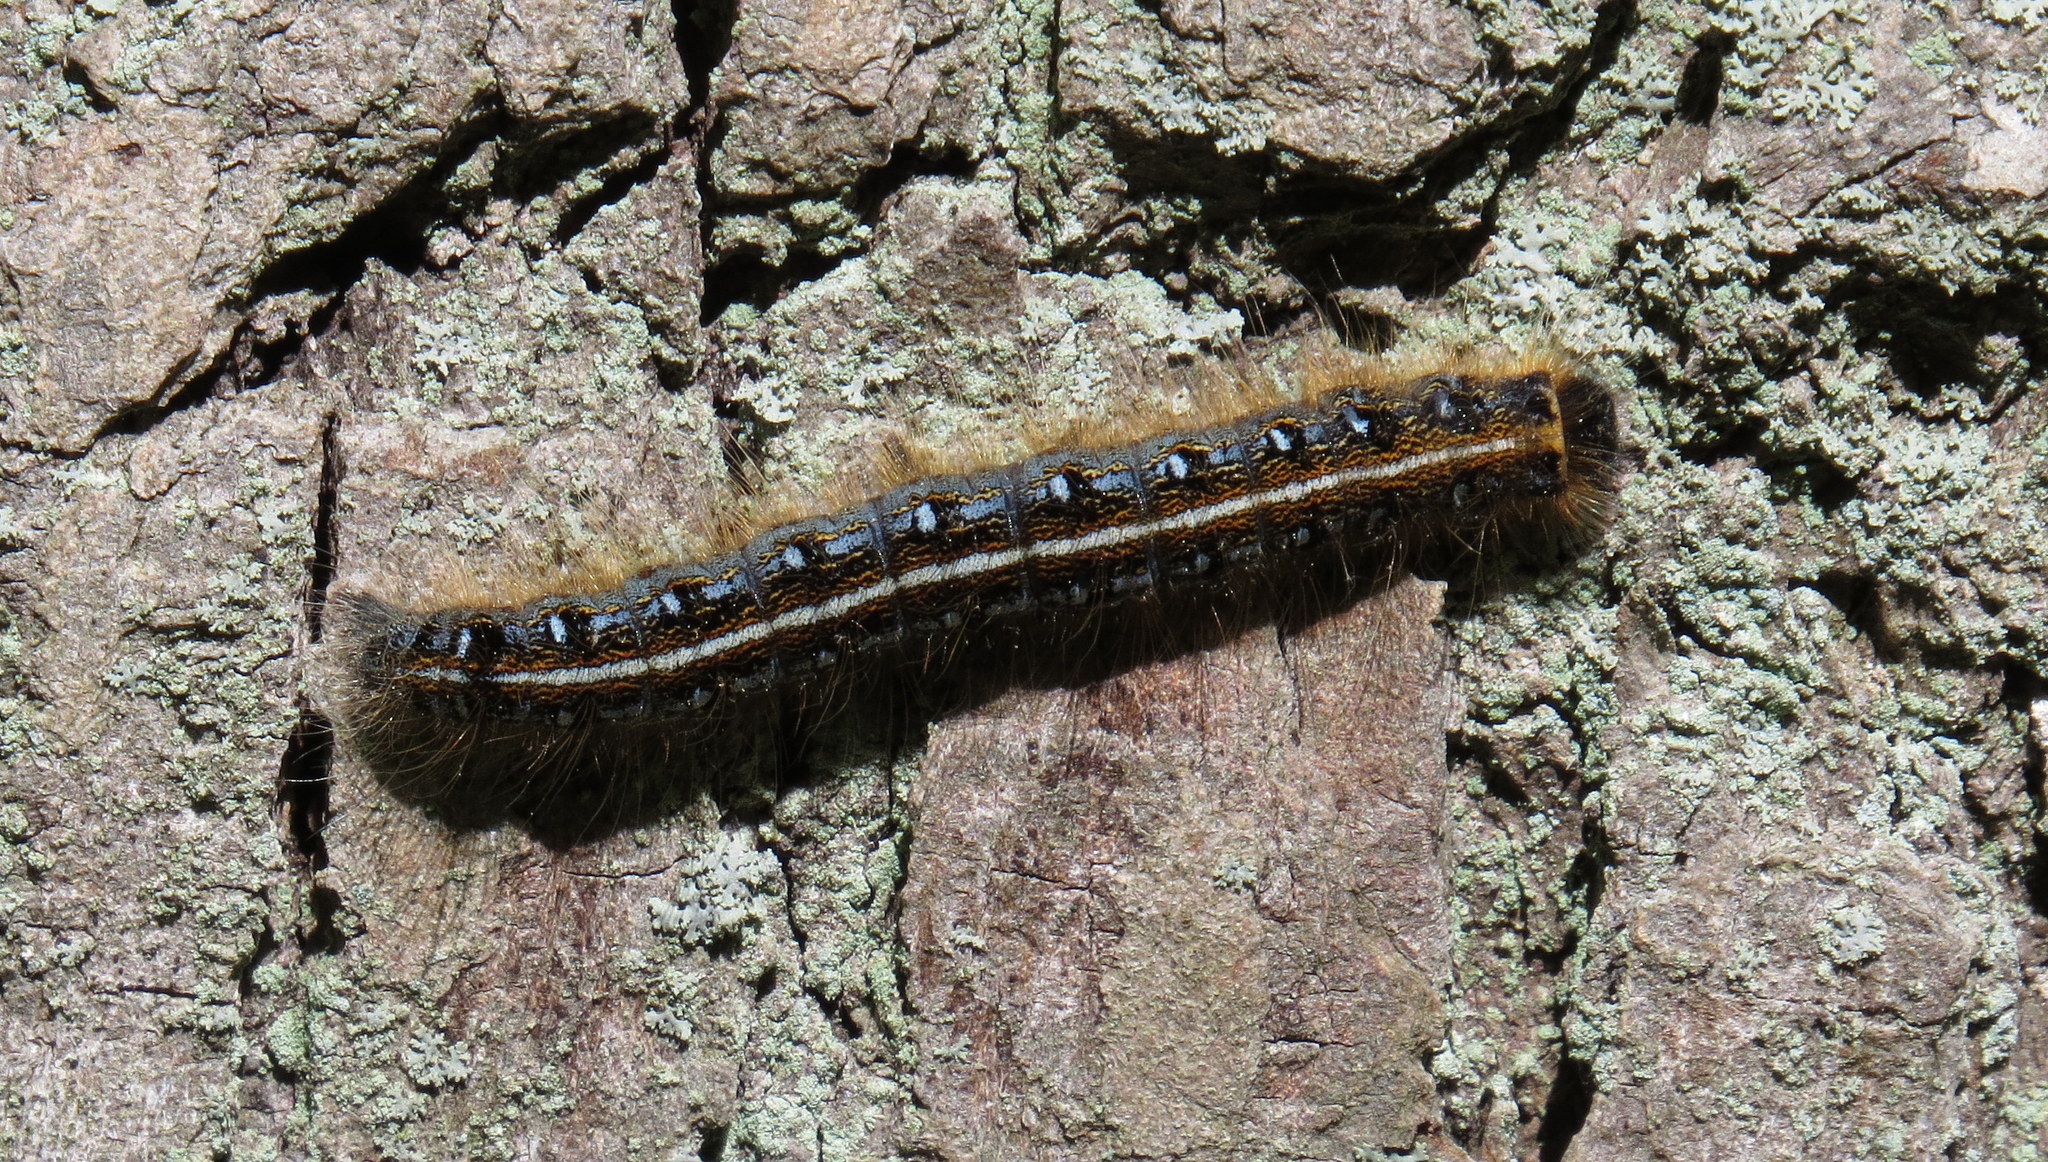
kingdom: Animalia
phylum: Arthropoda
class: Insecta
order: Lepidoptera
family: Lasiocampidae
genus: Malacosoma
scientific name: Malacosoma americana
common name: Eastern tent caterpillar moth
